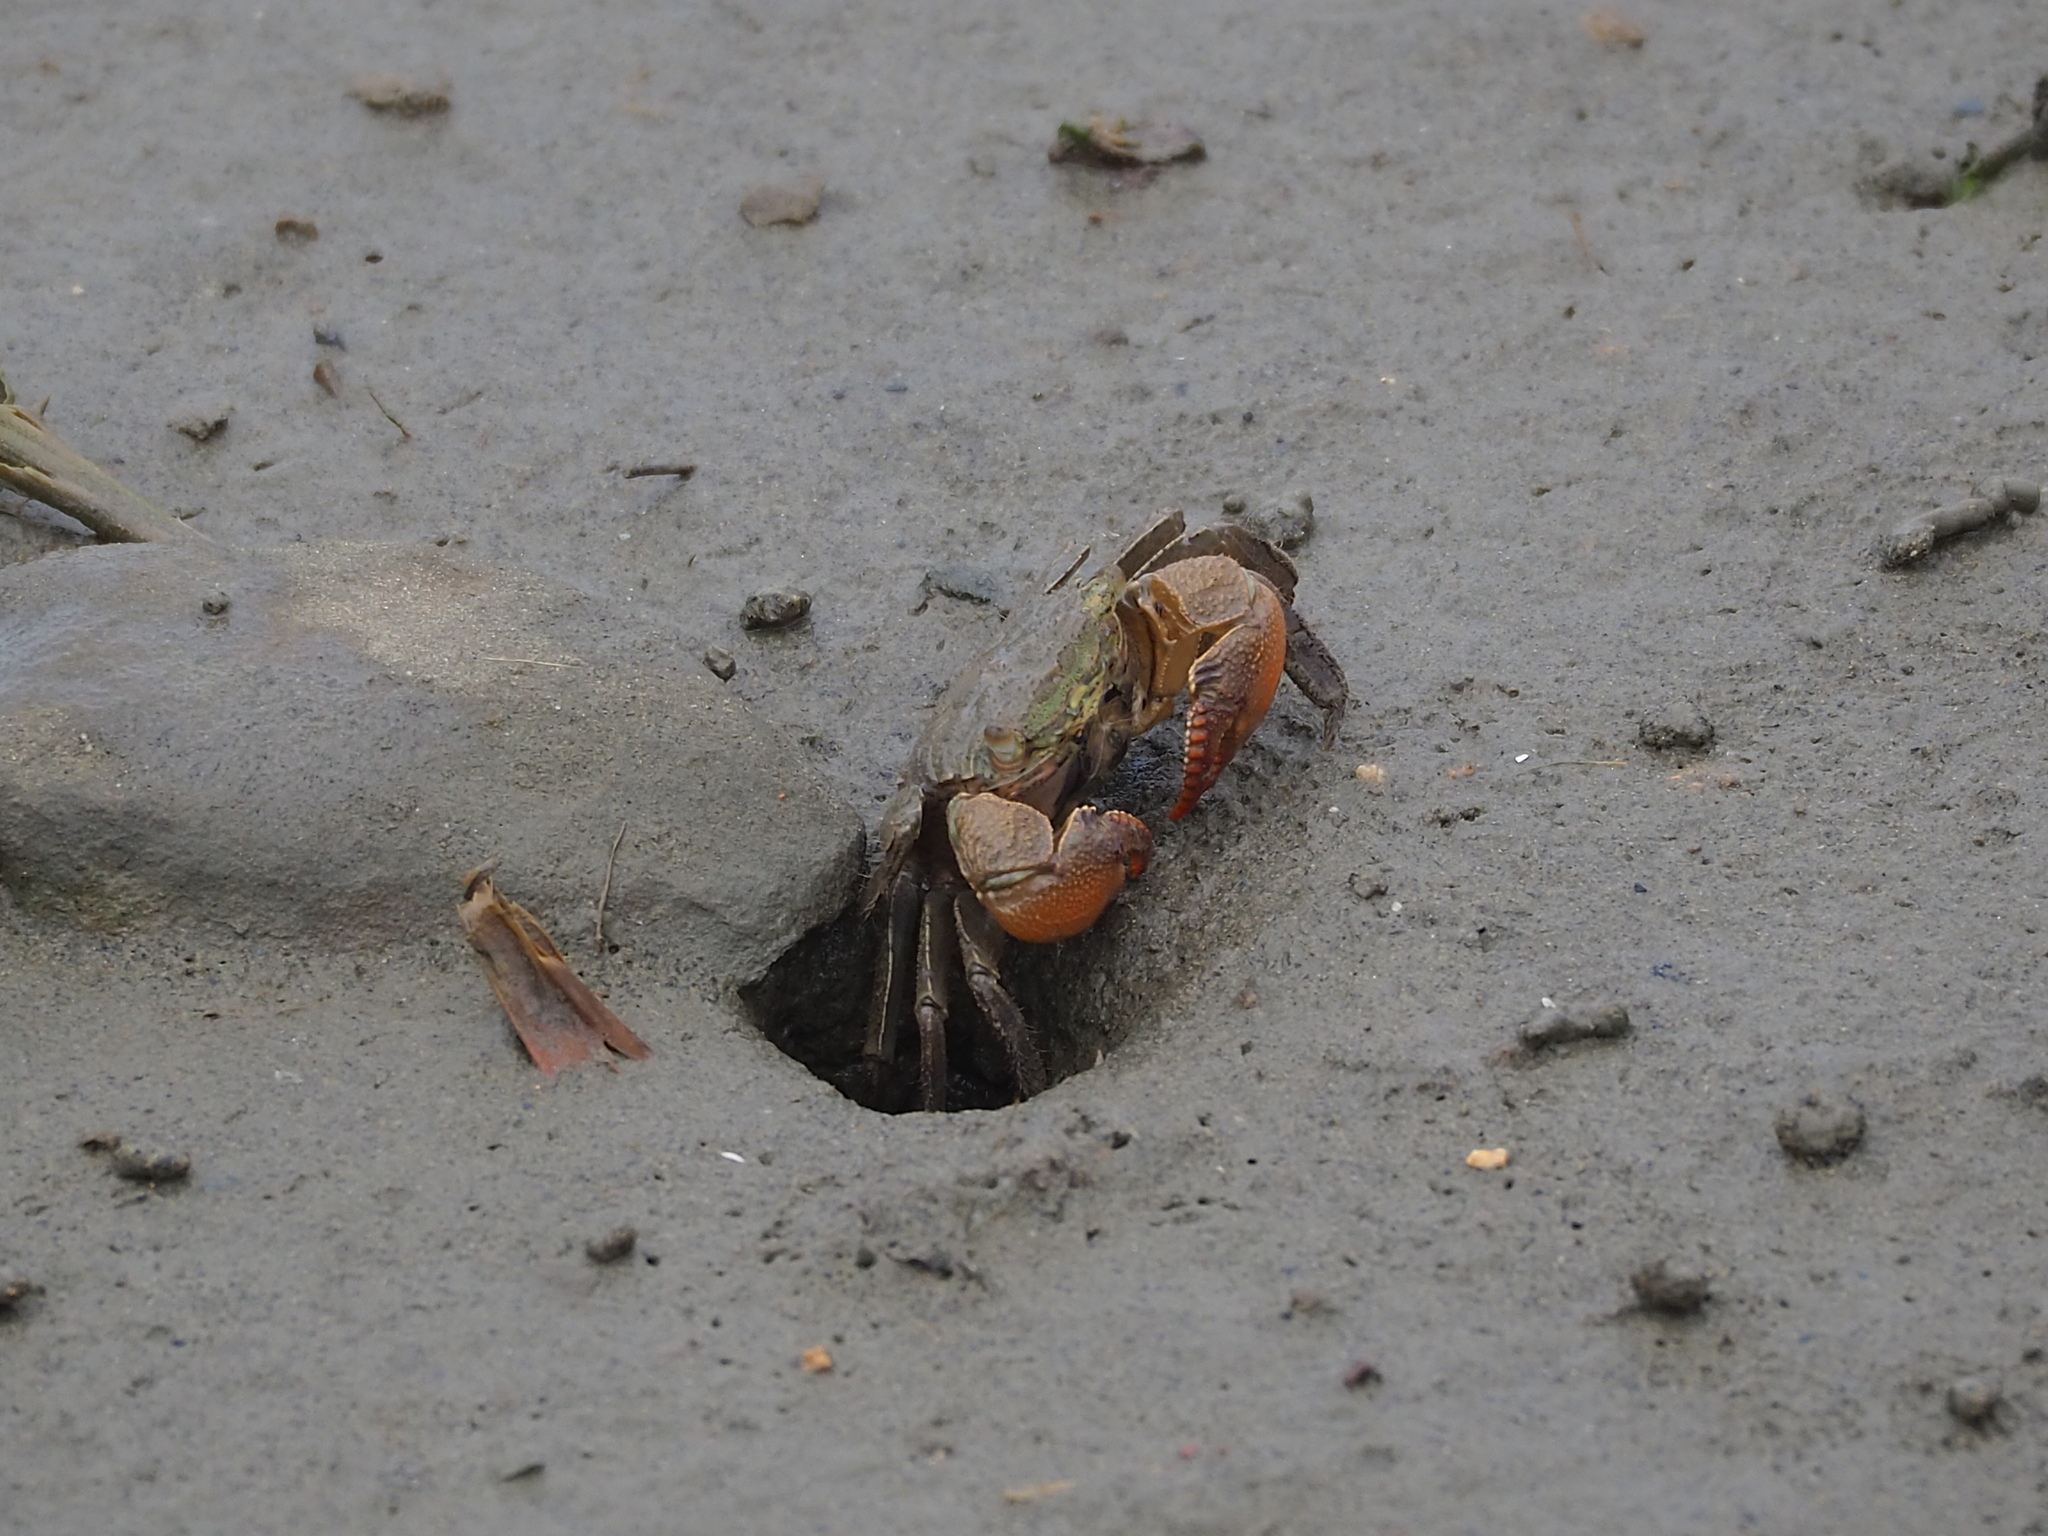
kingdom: Animalia
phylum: Arthropoda
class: Malacostraca
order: Decapoda
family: Sesarmidae
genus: Parasesarma
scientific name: Parasesarma insulare
